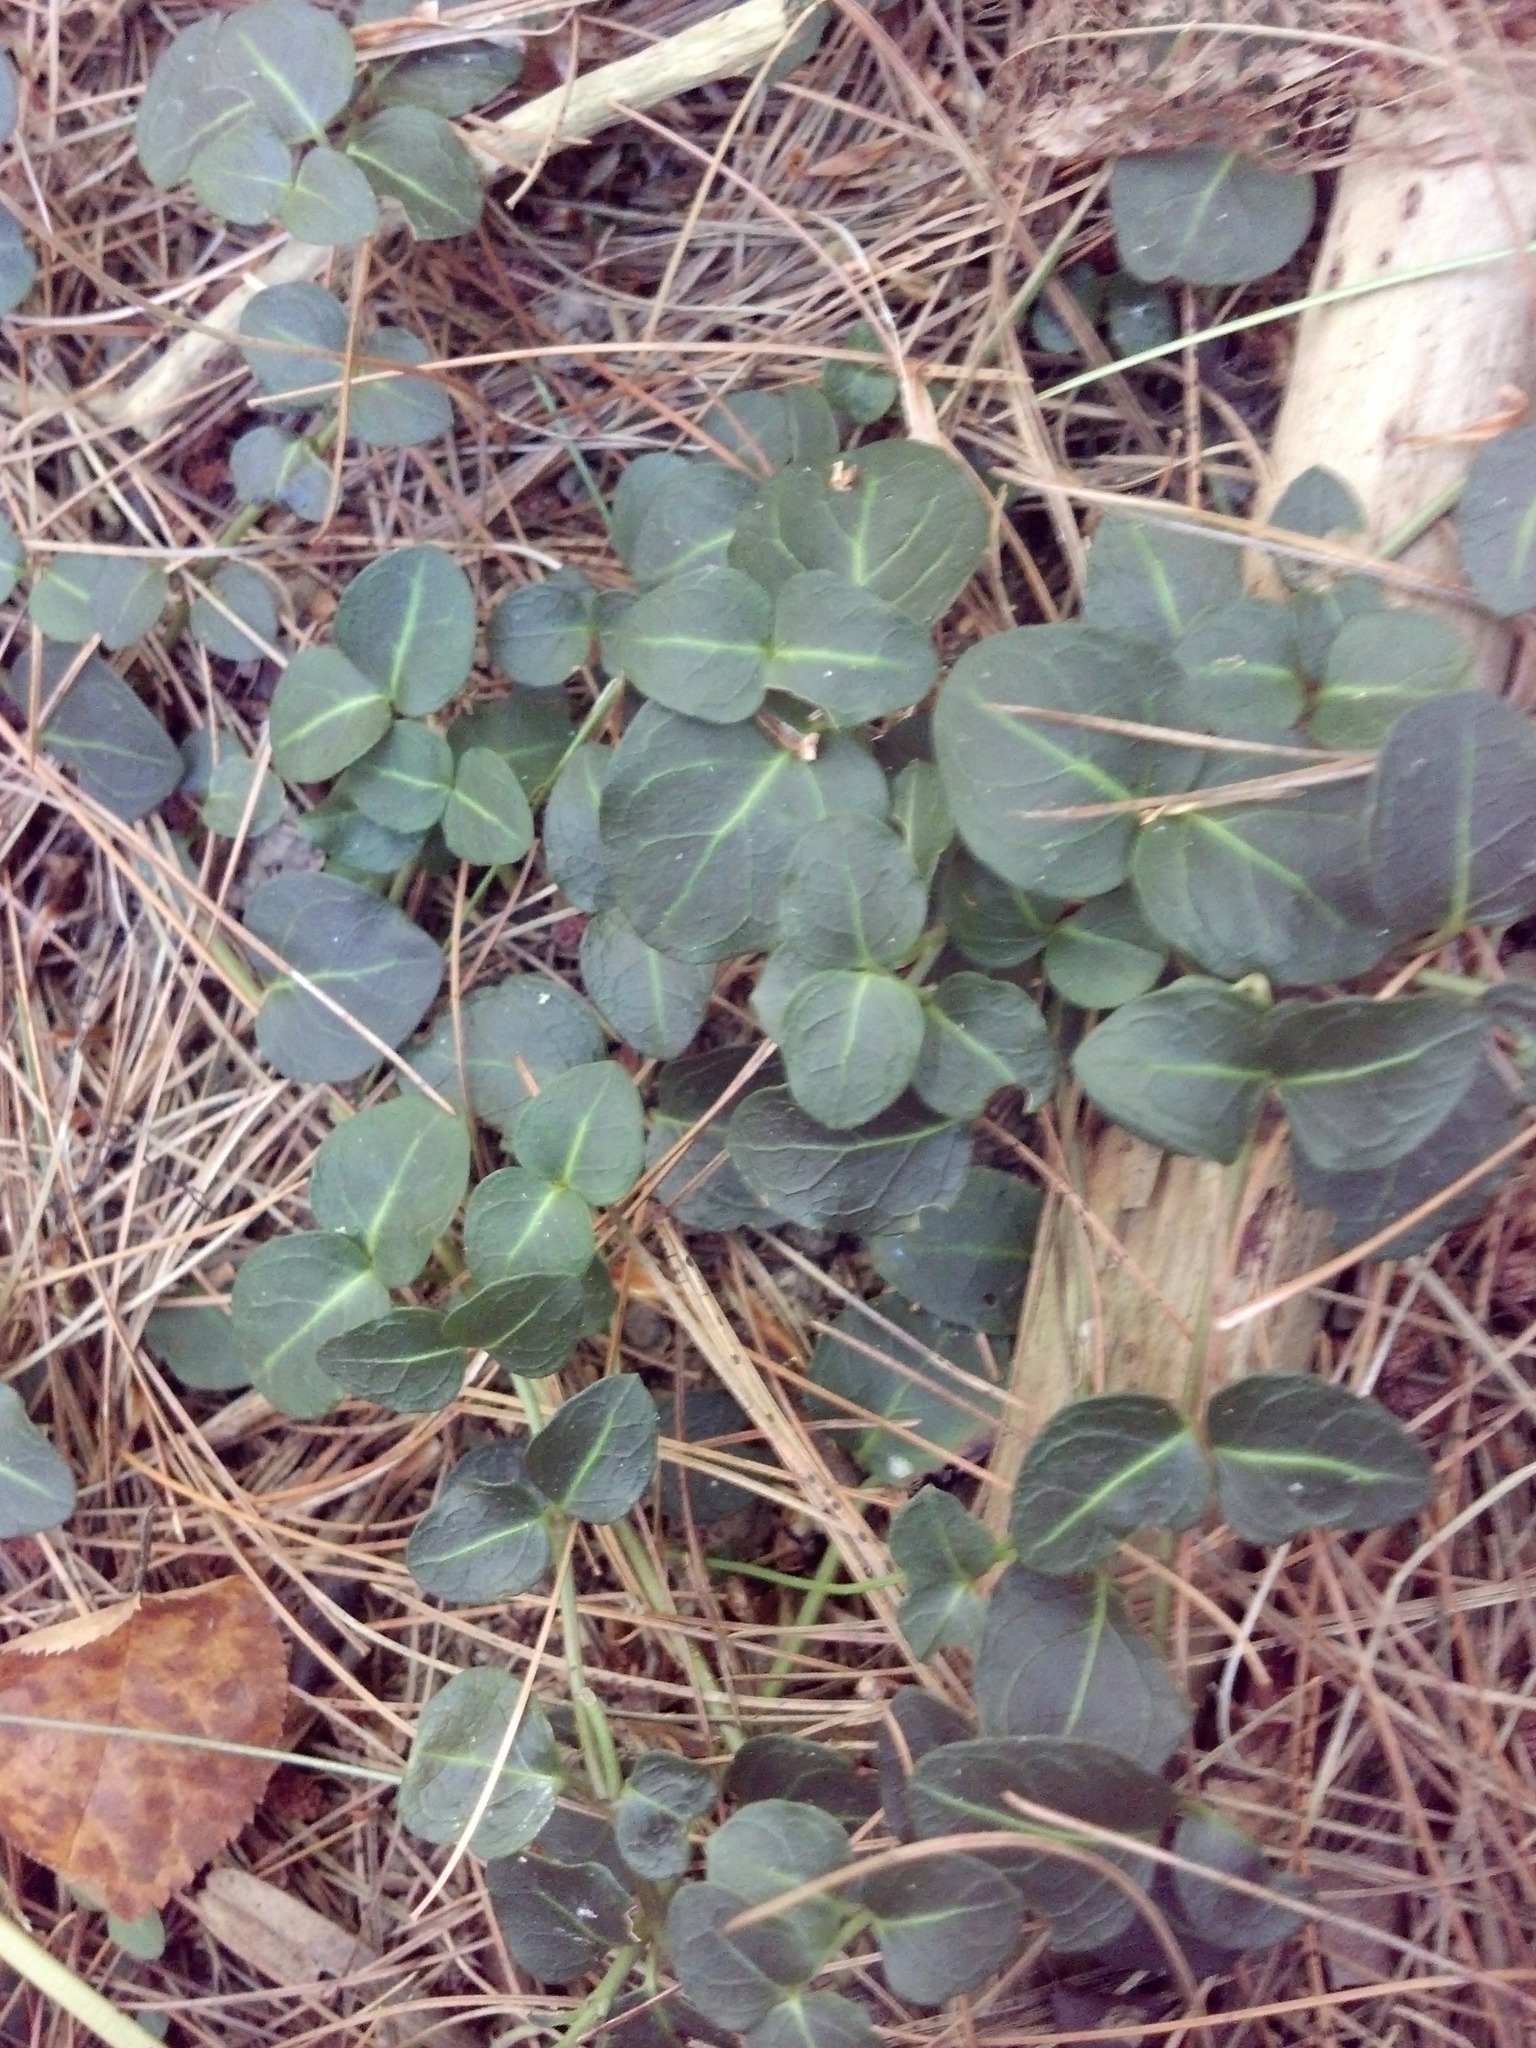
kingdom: Plantae
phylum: Tracheophyta
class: Magnoliopsida
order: Gentianales
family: Rubiaceae
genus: Mitchella
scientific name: Mitchella repens
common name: Partridge-berry
